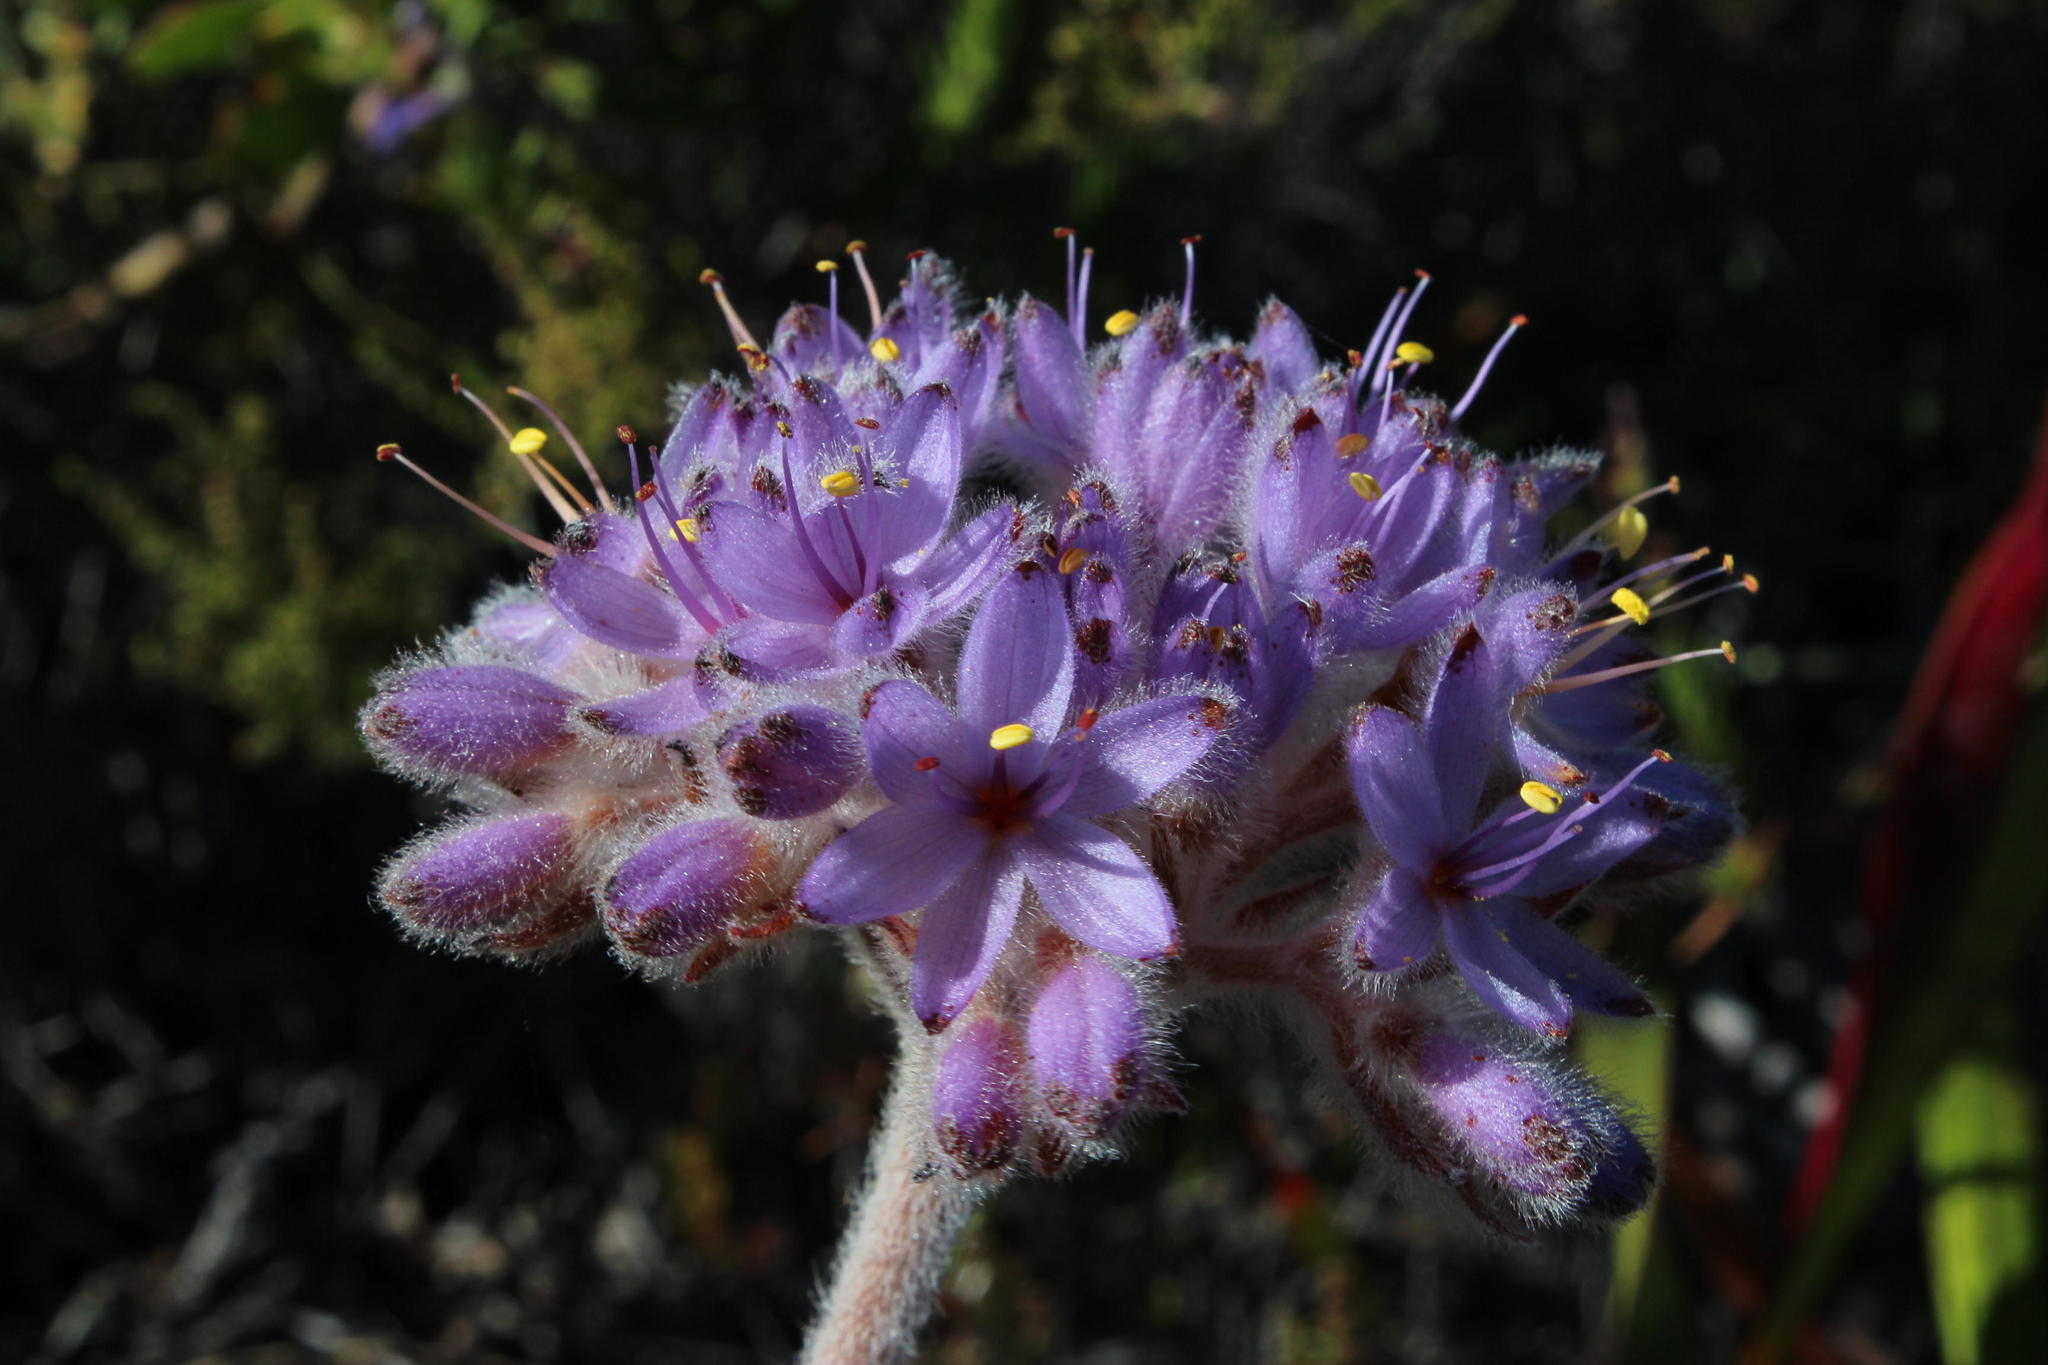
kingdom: Plantae
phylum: Tracheophyta
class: Liliopsida
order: Commelinales
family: Haemodoraceae
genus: Dilatris
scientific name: Dilatris corymbosa
